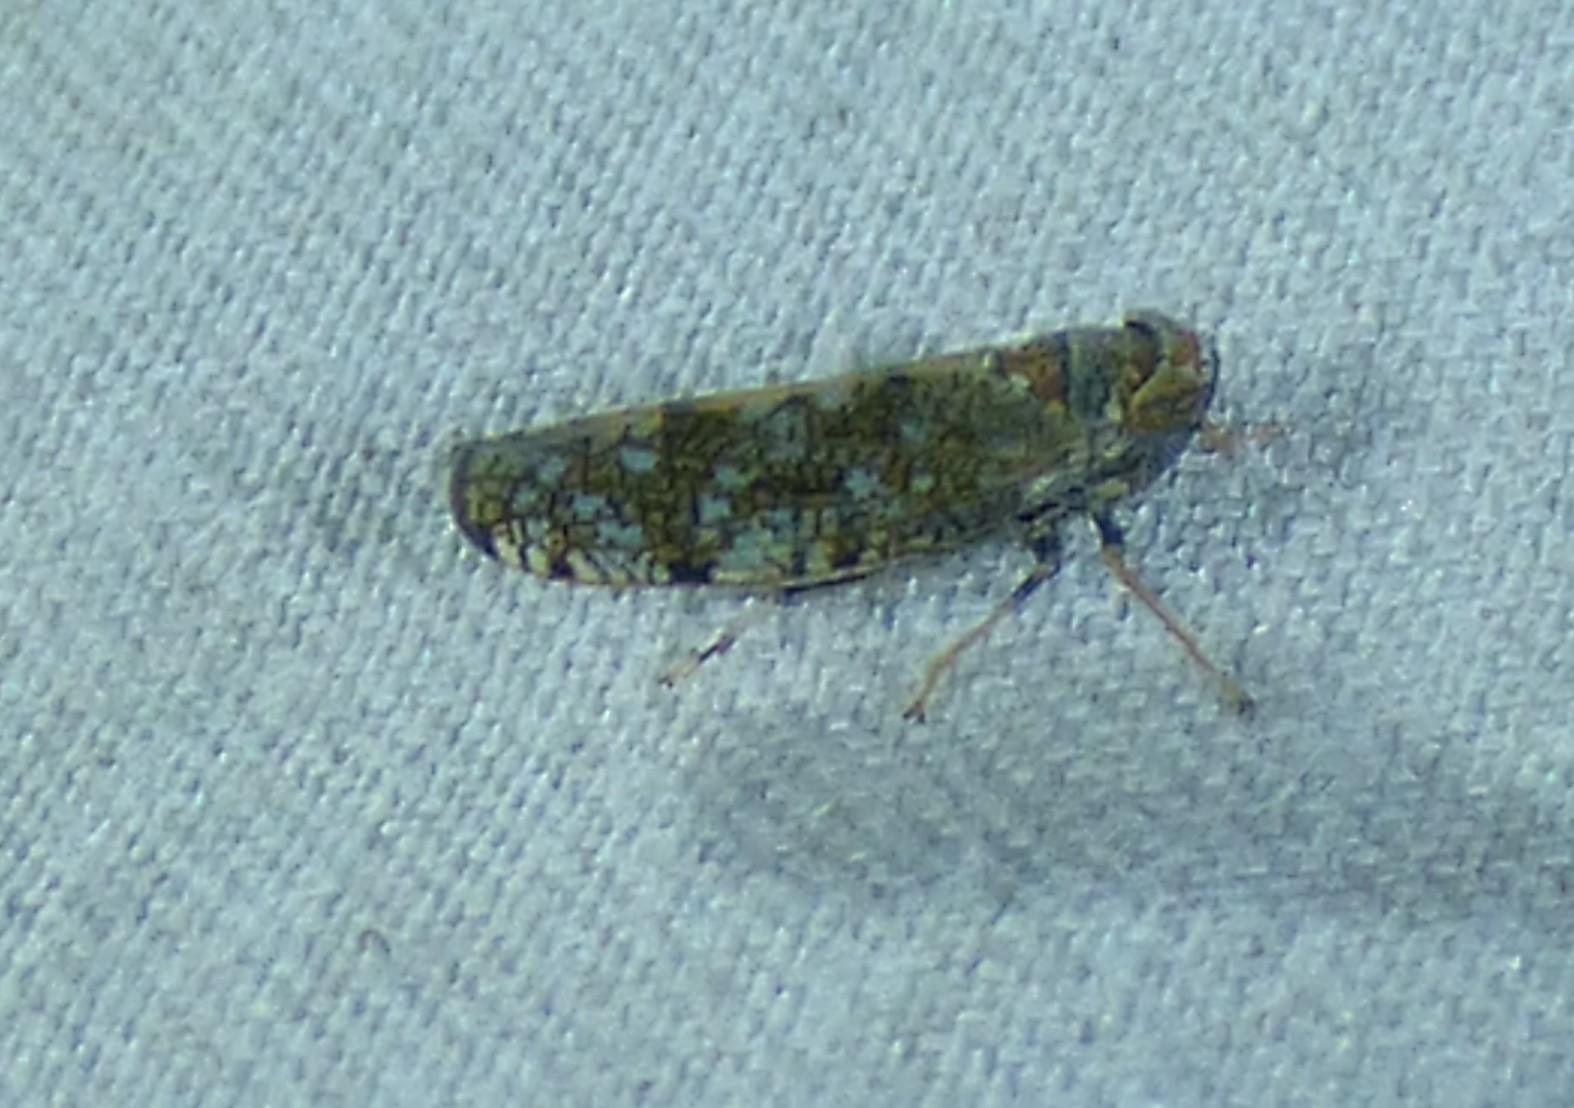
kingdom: Animalia
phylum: Arthropoda
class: Insecta
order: Hemiptera
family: Cicadellidae
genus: Orientus
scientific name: Orientus ishidae
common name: Japanese leafhopper
